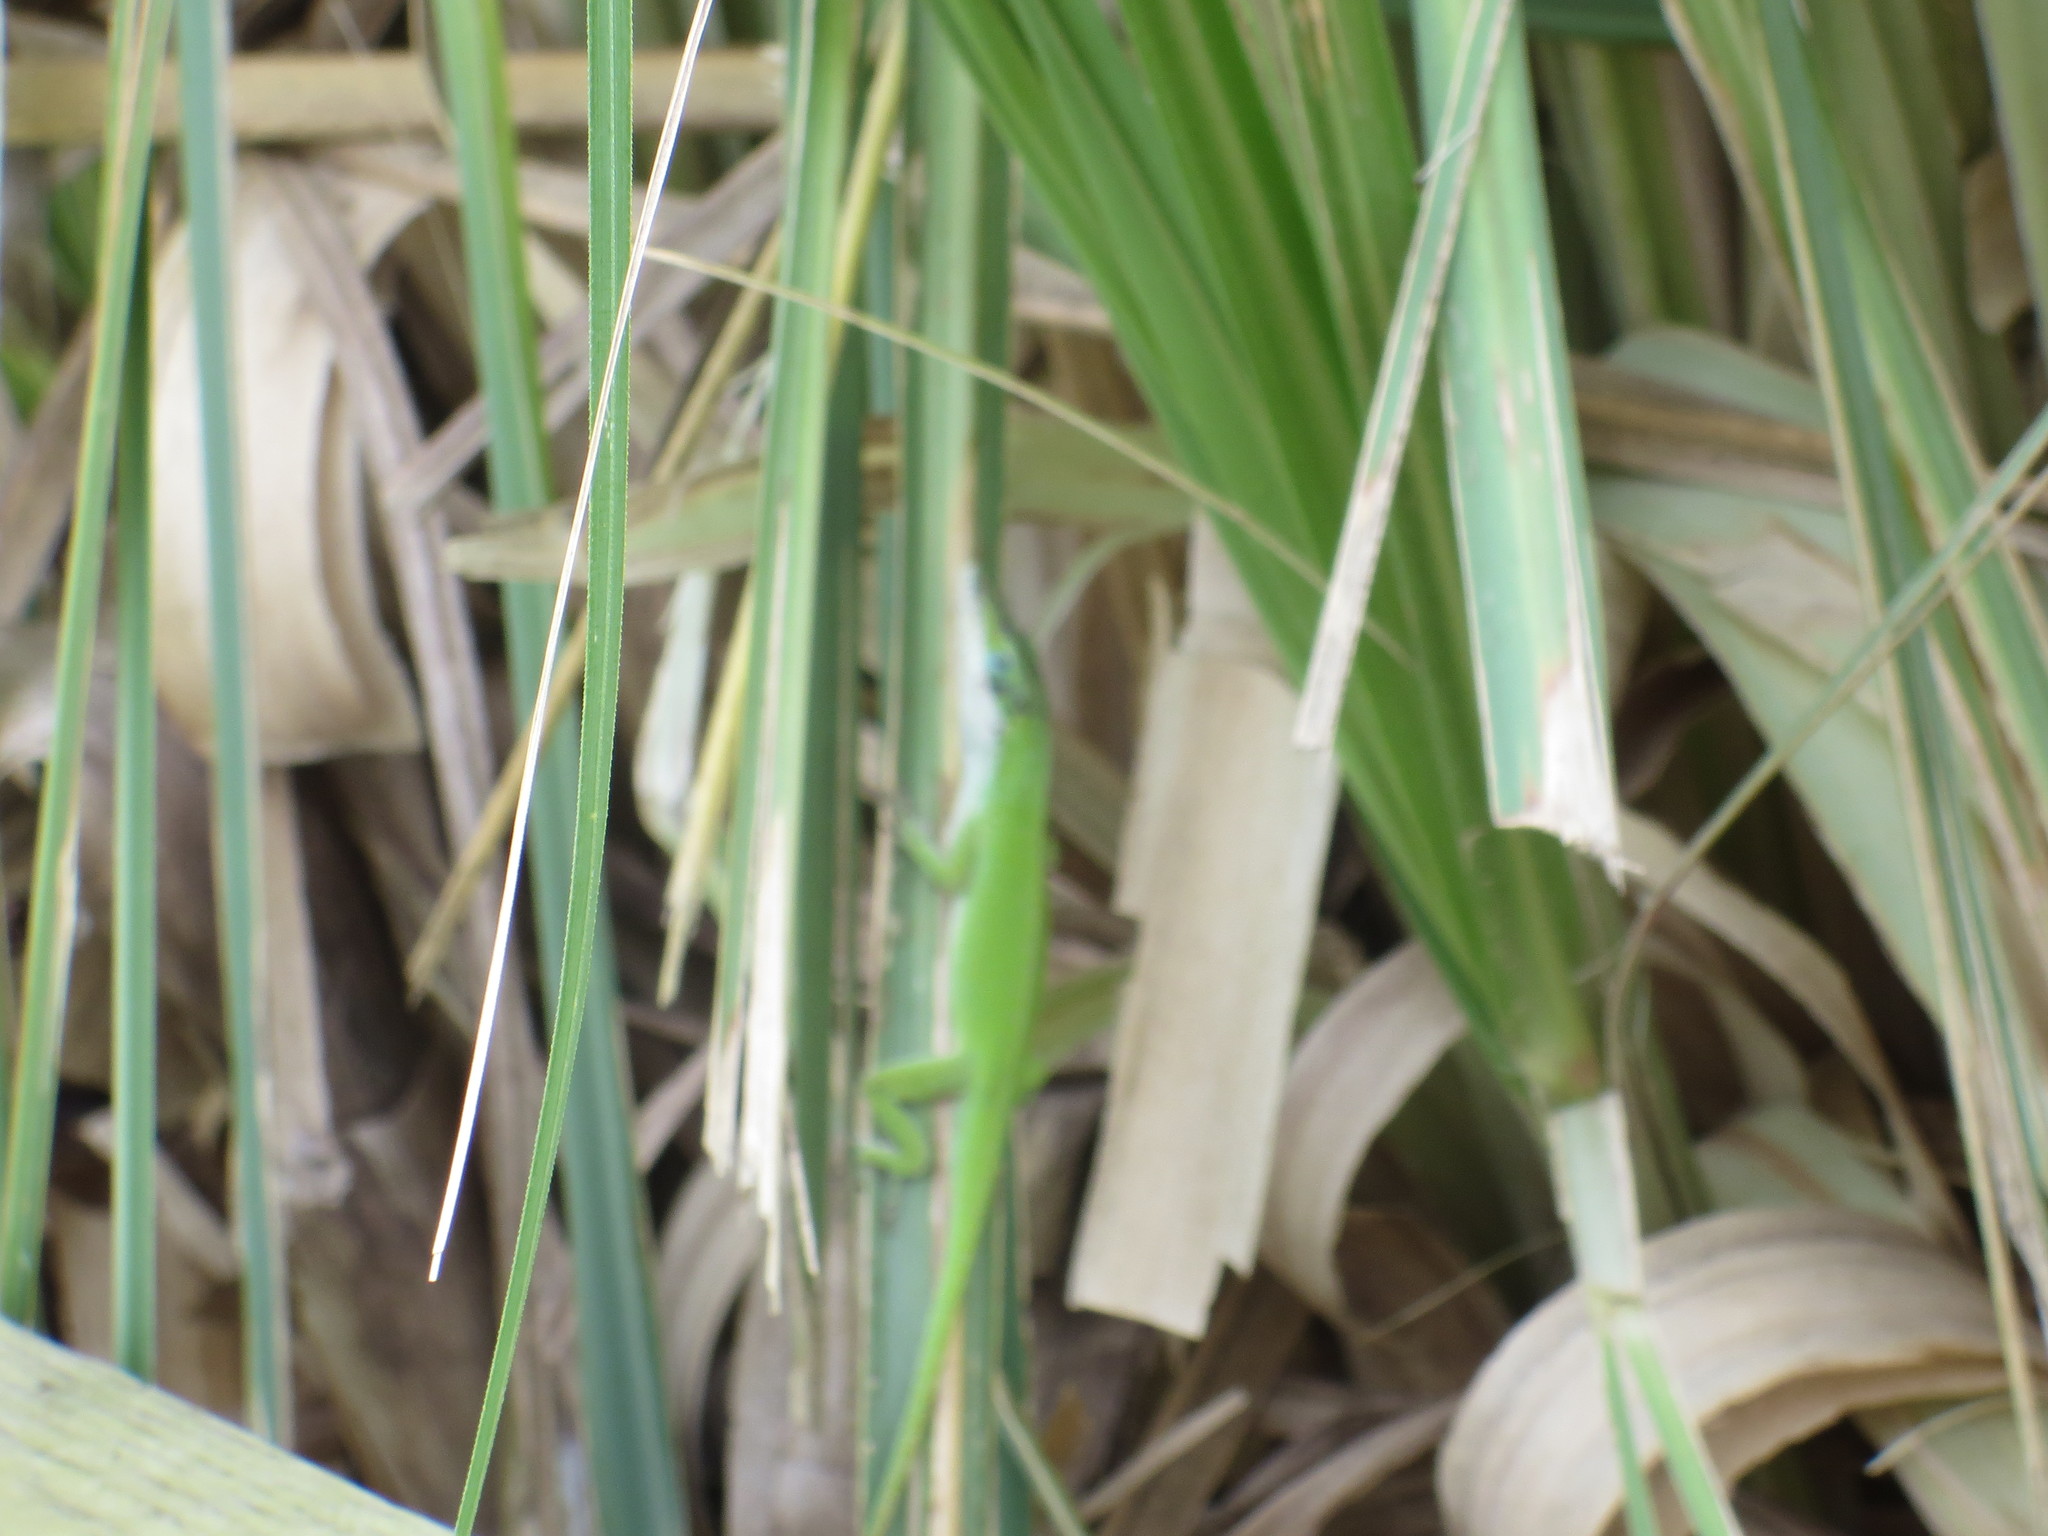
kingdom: Animalia
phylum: Chordata
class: Squamata
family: Dactyloidae
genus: Anolis
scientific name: Anolis carolinensis
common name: Green anole
